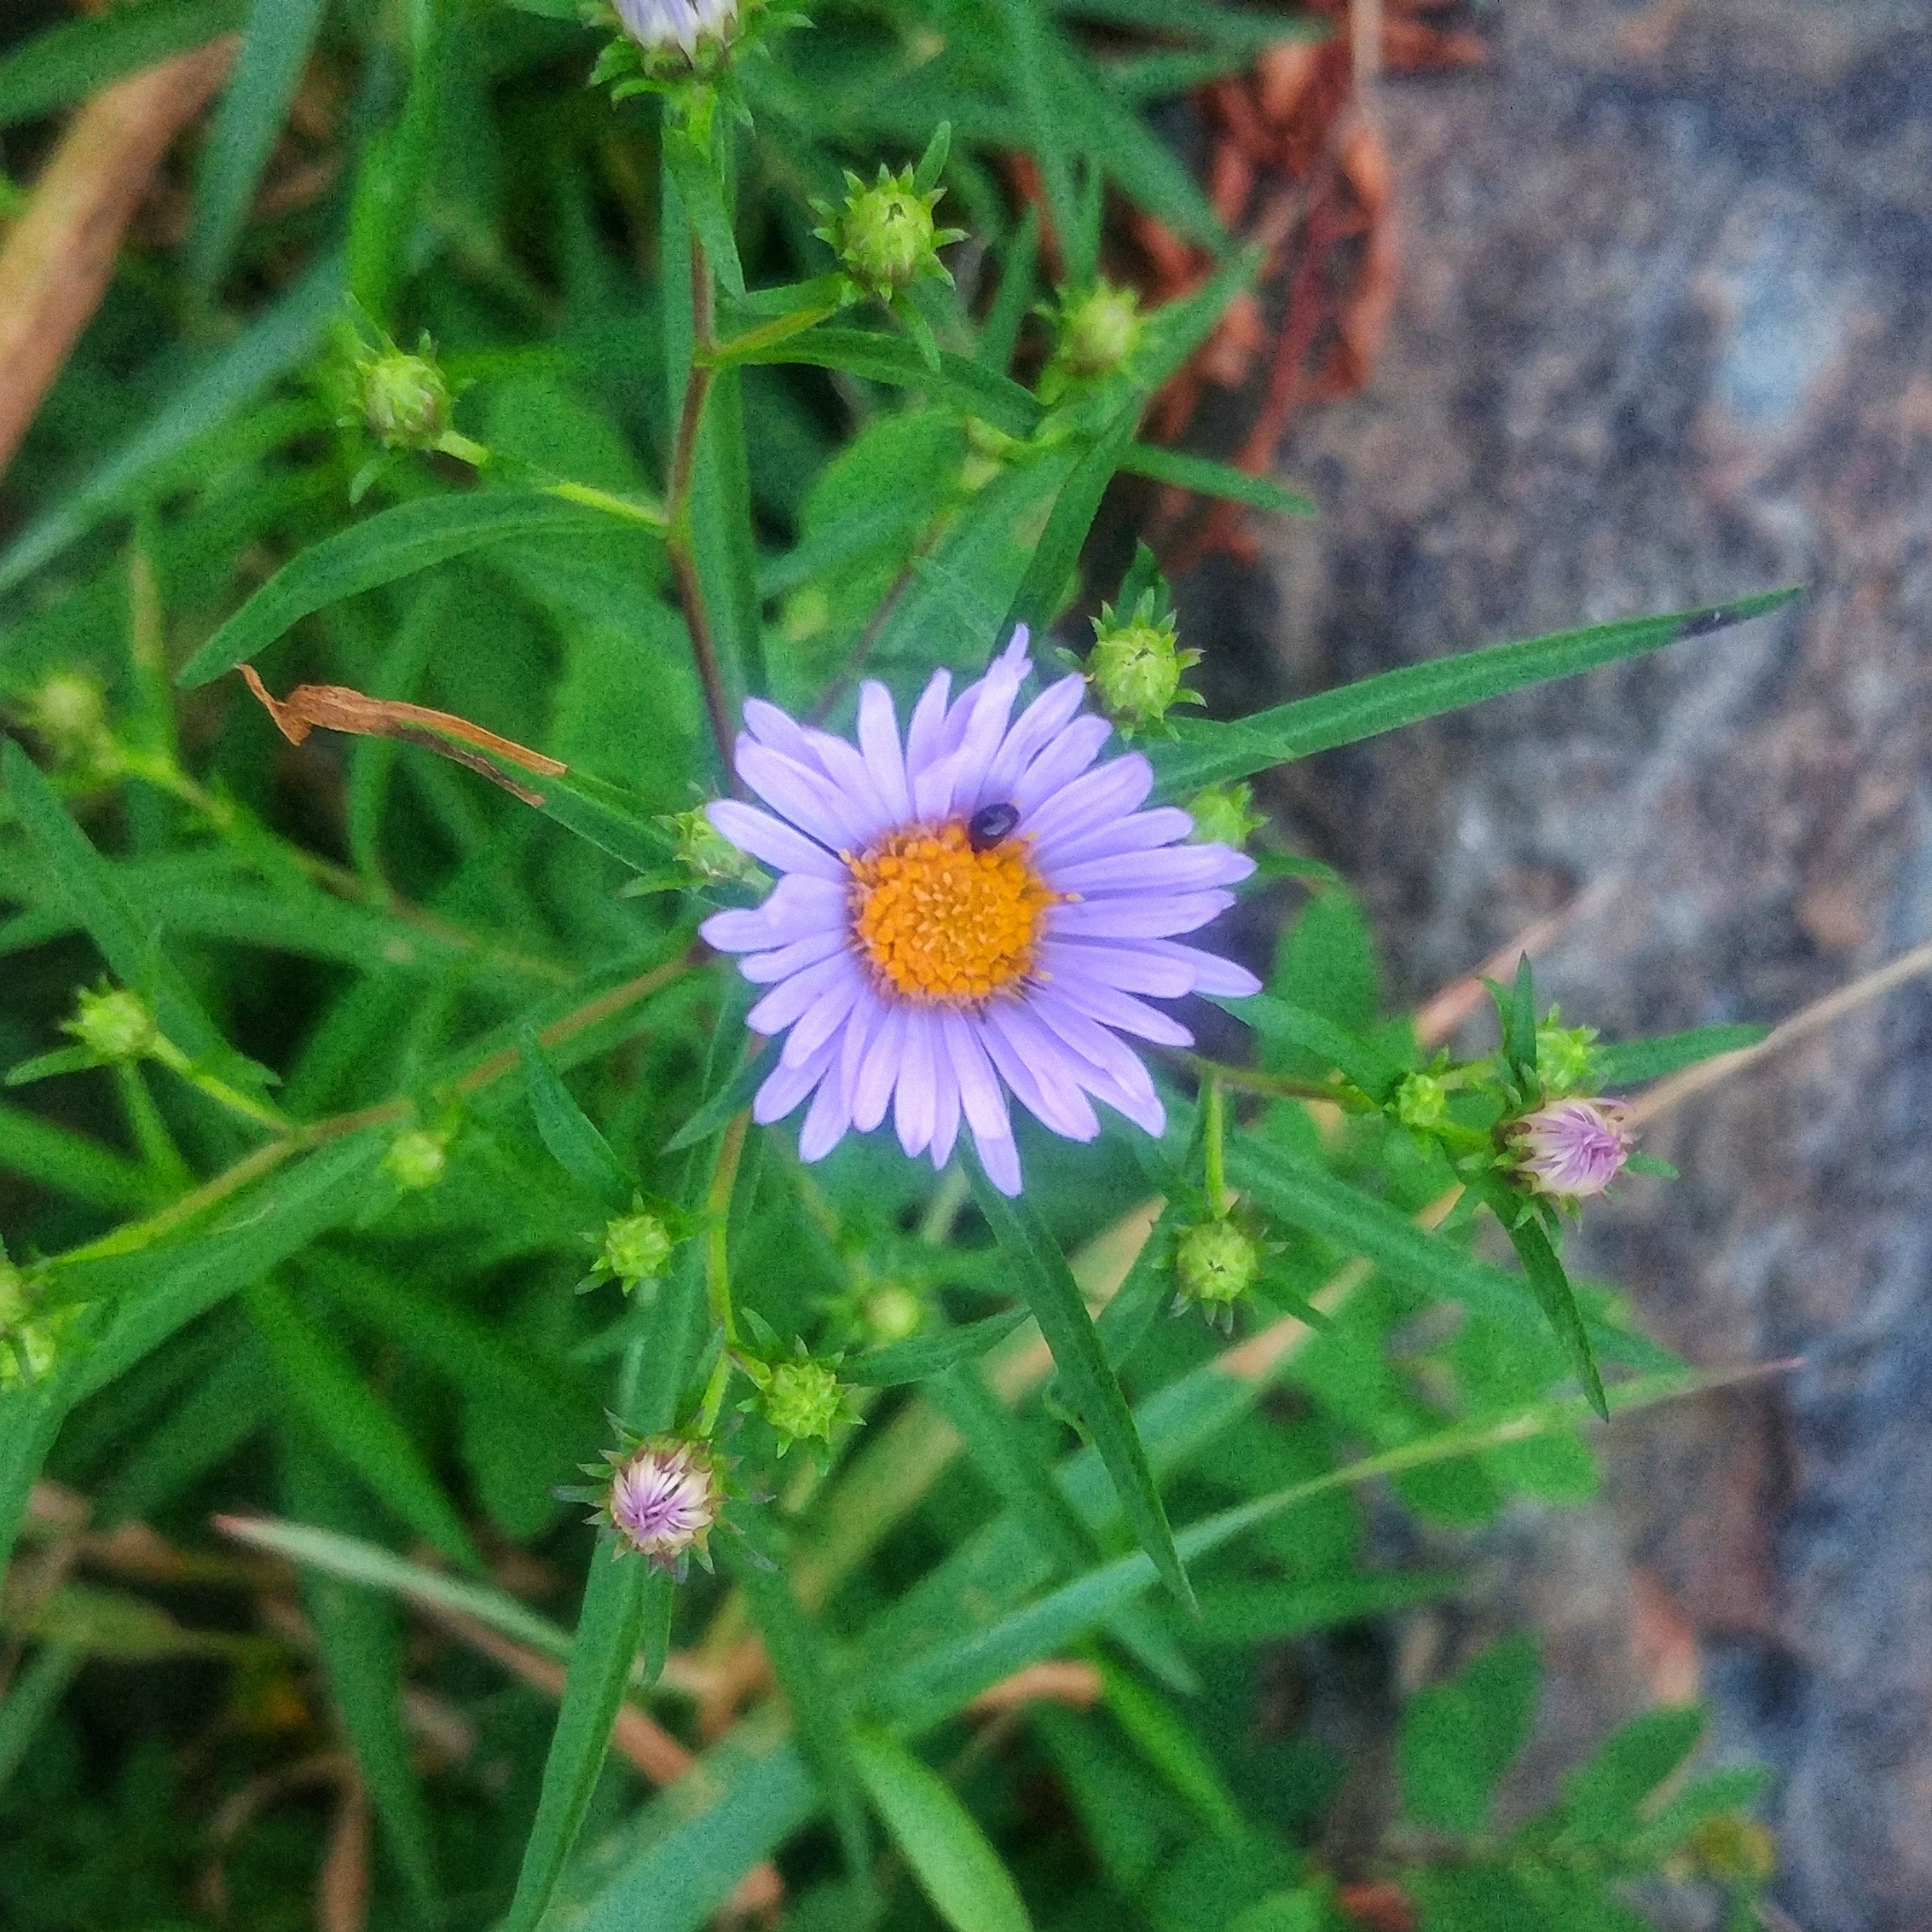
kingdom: Plantae
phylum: Tracheophyta
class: Magnoliopsida
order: Asterales
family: Asteraceae
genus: Symphyotrichum
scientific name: Symphyotrichum novi-belgii
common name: Michaelmas daisy
